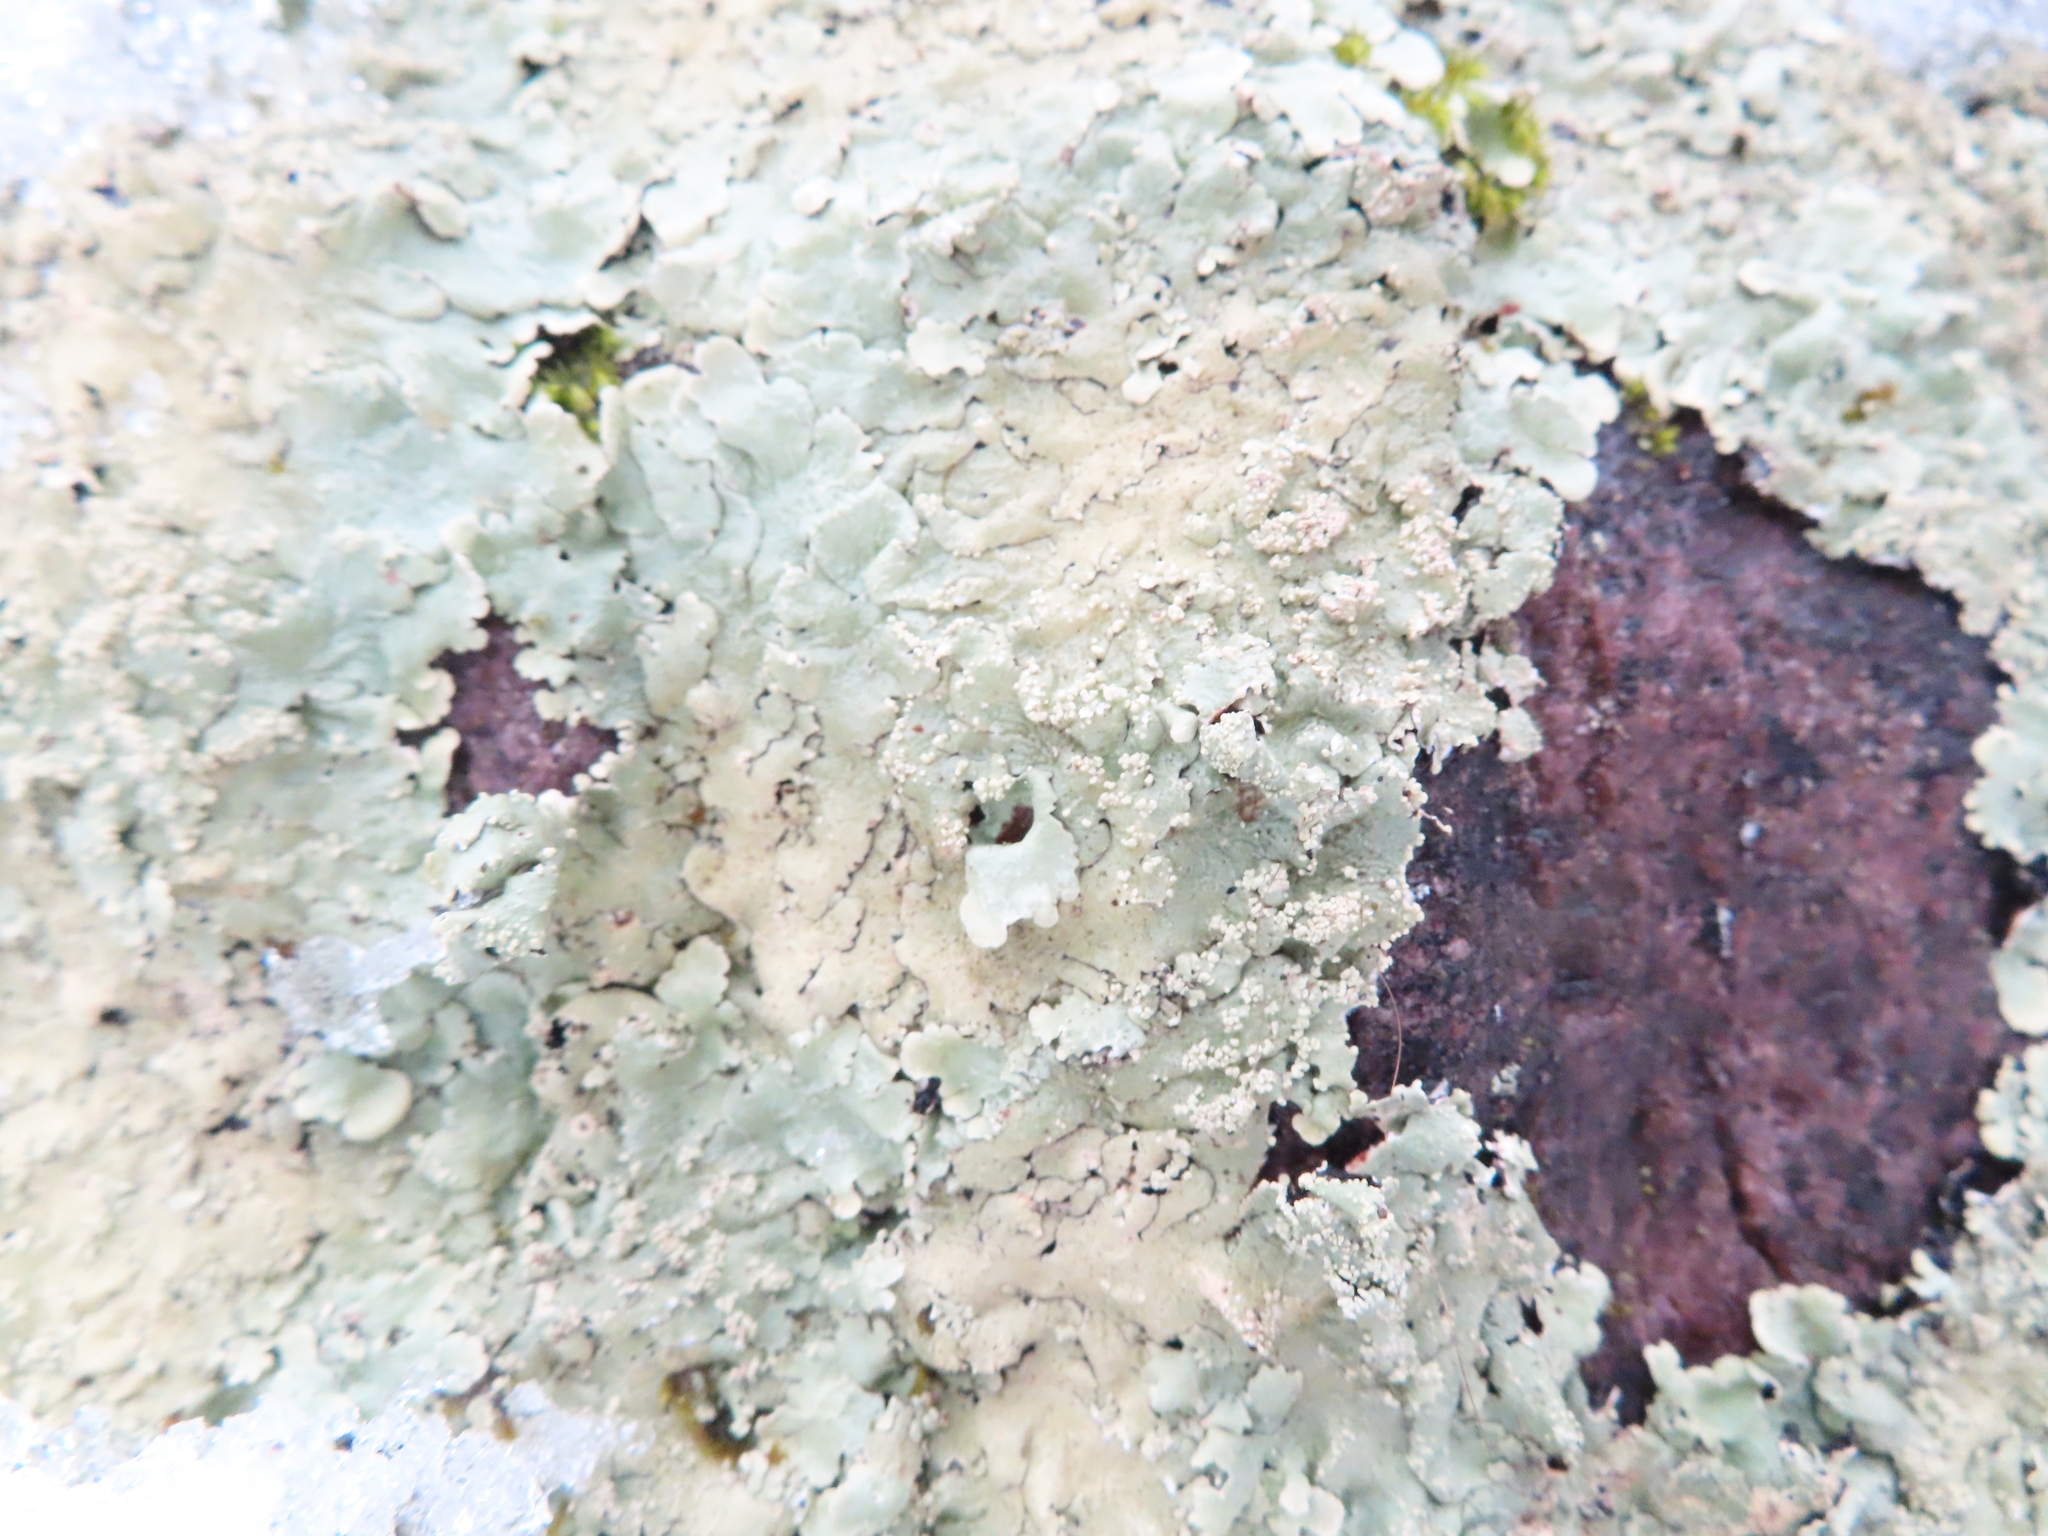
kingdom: Fungi
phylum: Ascomycota
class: Lecanoromycetes
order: Lecanorales
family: Parmeliaceae
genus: Flavoparmelia
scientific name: Flavoparmelia baltimorensis
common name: Rock greenshield
